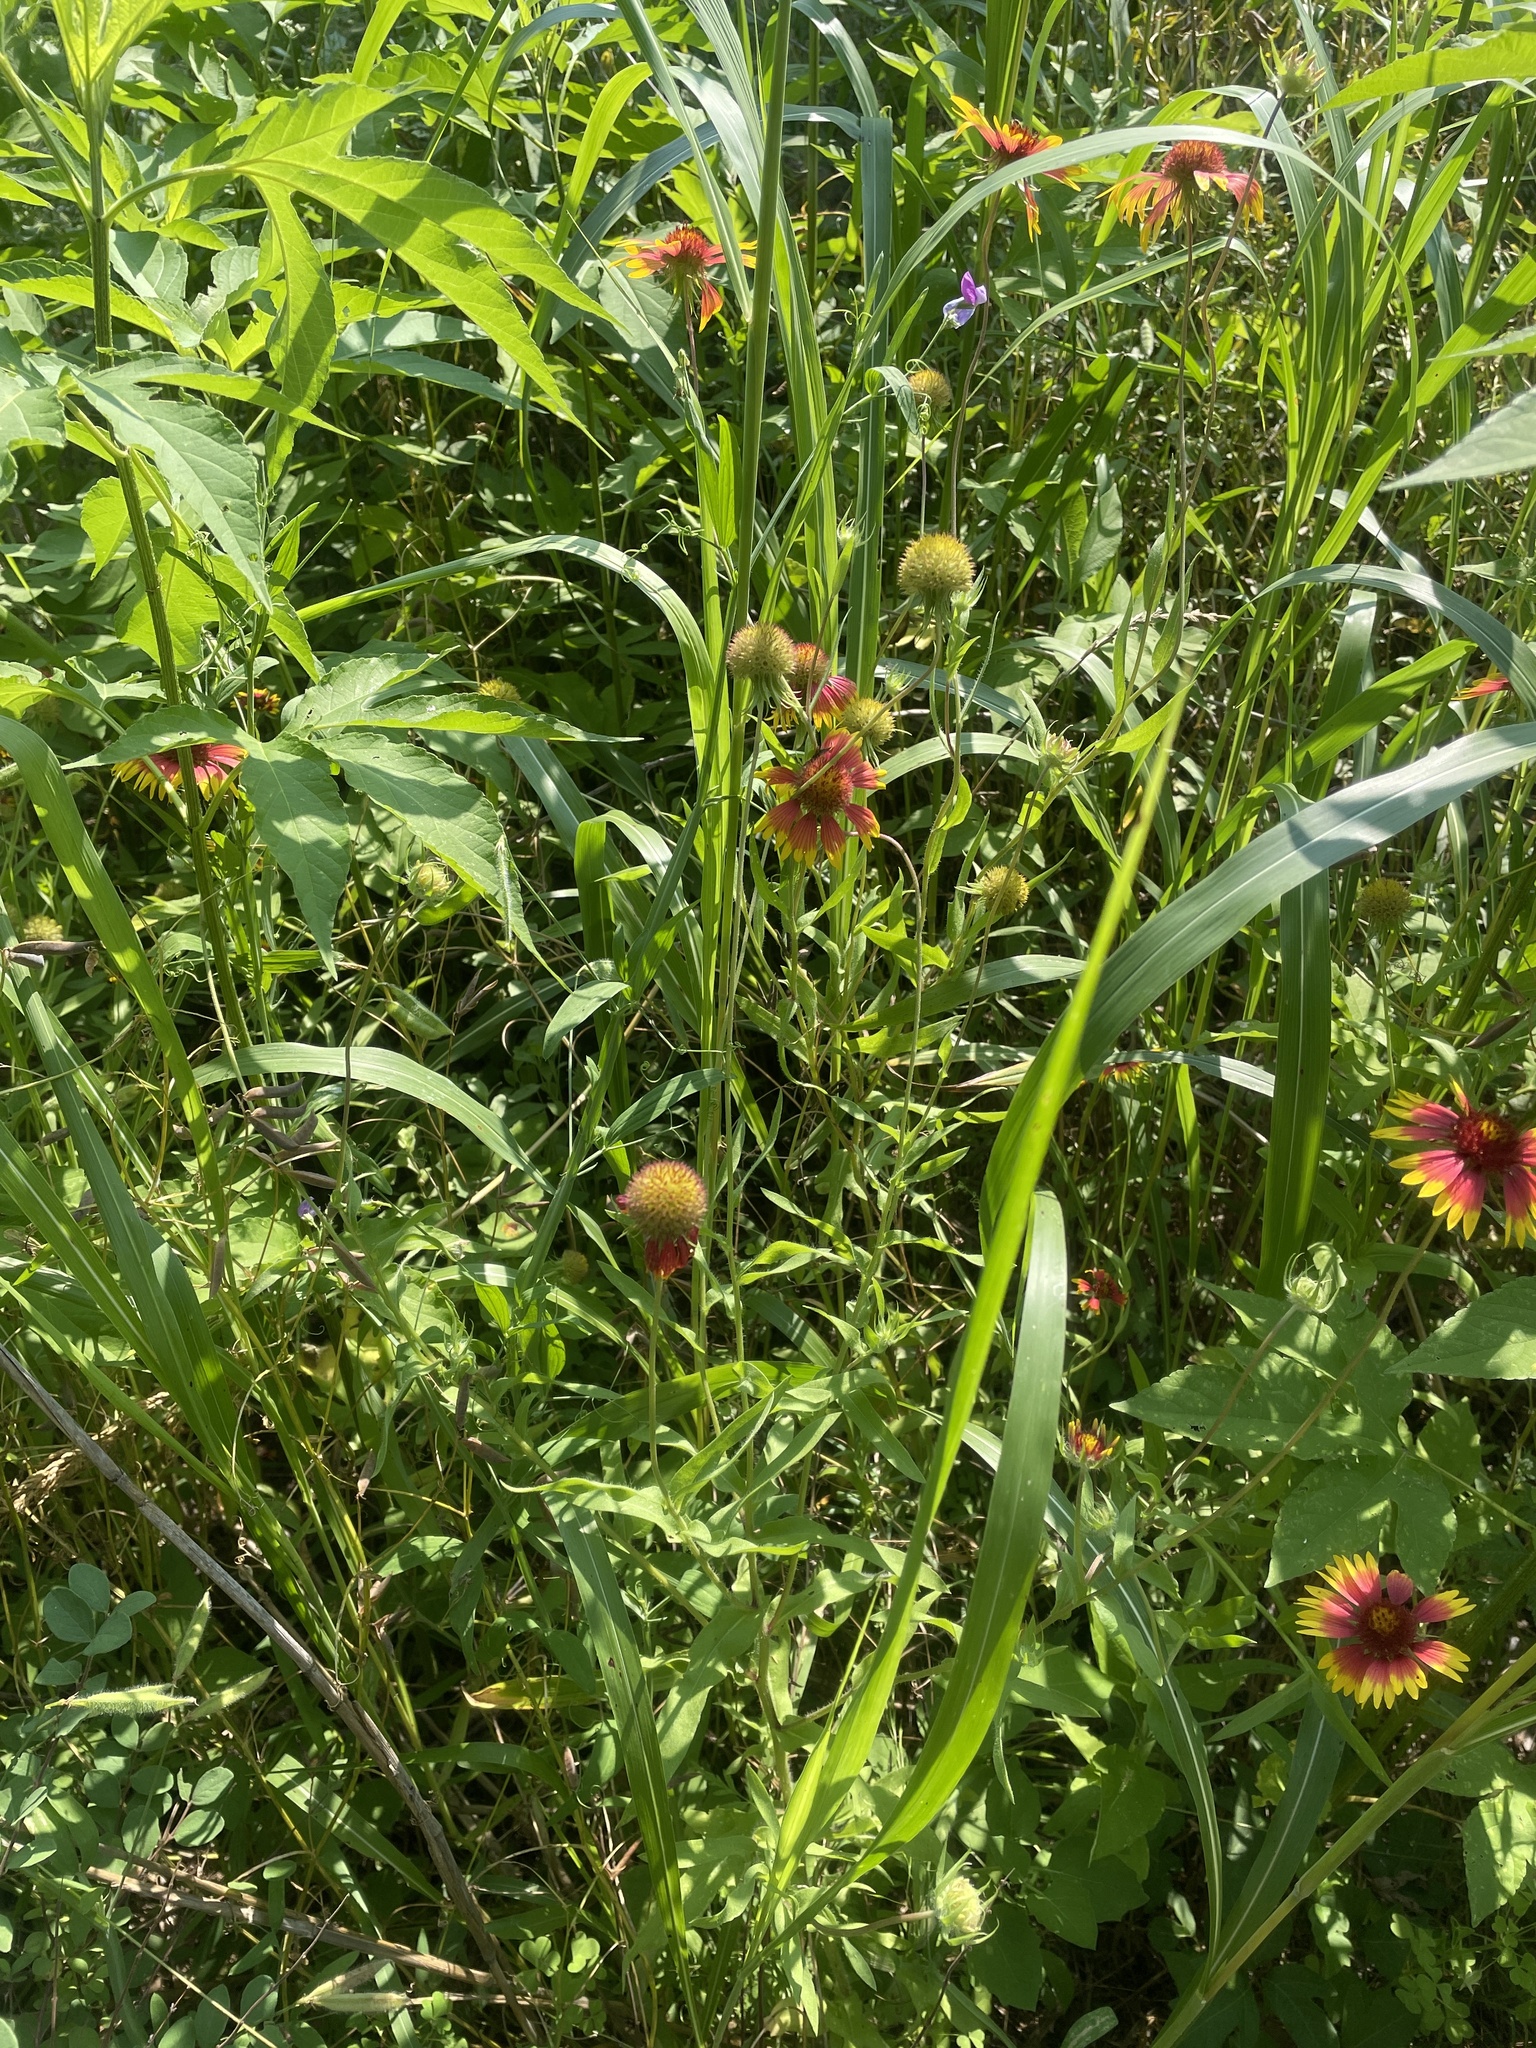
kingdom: Plantae
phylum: Tracheophyta
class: Magnoliopsida
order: Asterales
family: Asteraceae
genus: Gaillardia
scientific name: Gaillardia pulchella
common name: Firewheel
